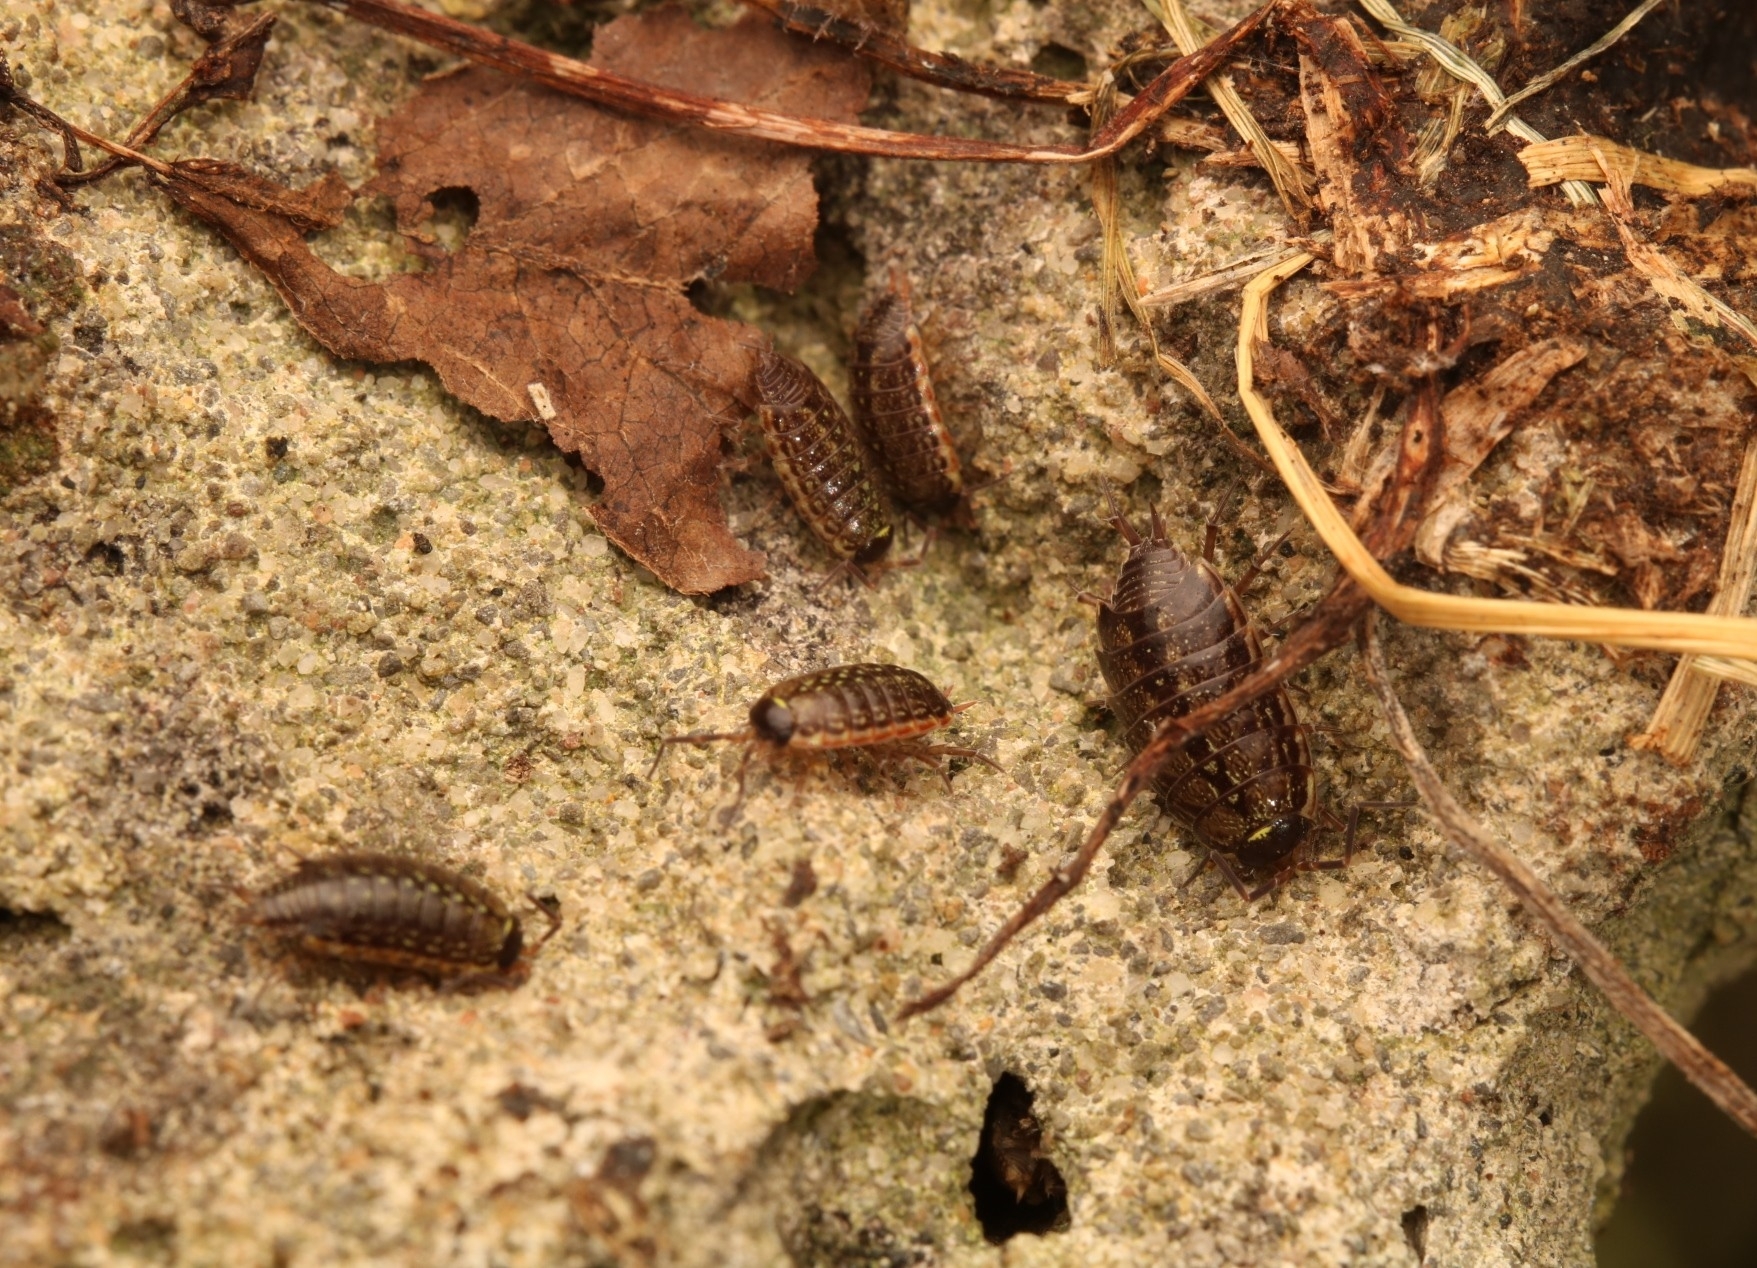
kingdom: Animalia
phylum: Arthropoda
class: Malacostraca
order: Isopoda
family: Philosciidae
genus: Philoscia
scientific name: Philoscia muscorum
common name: Common striped woodlouse
